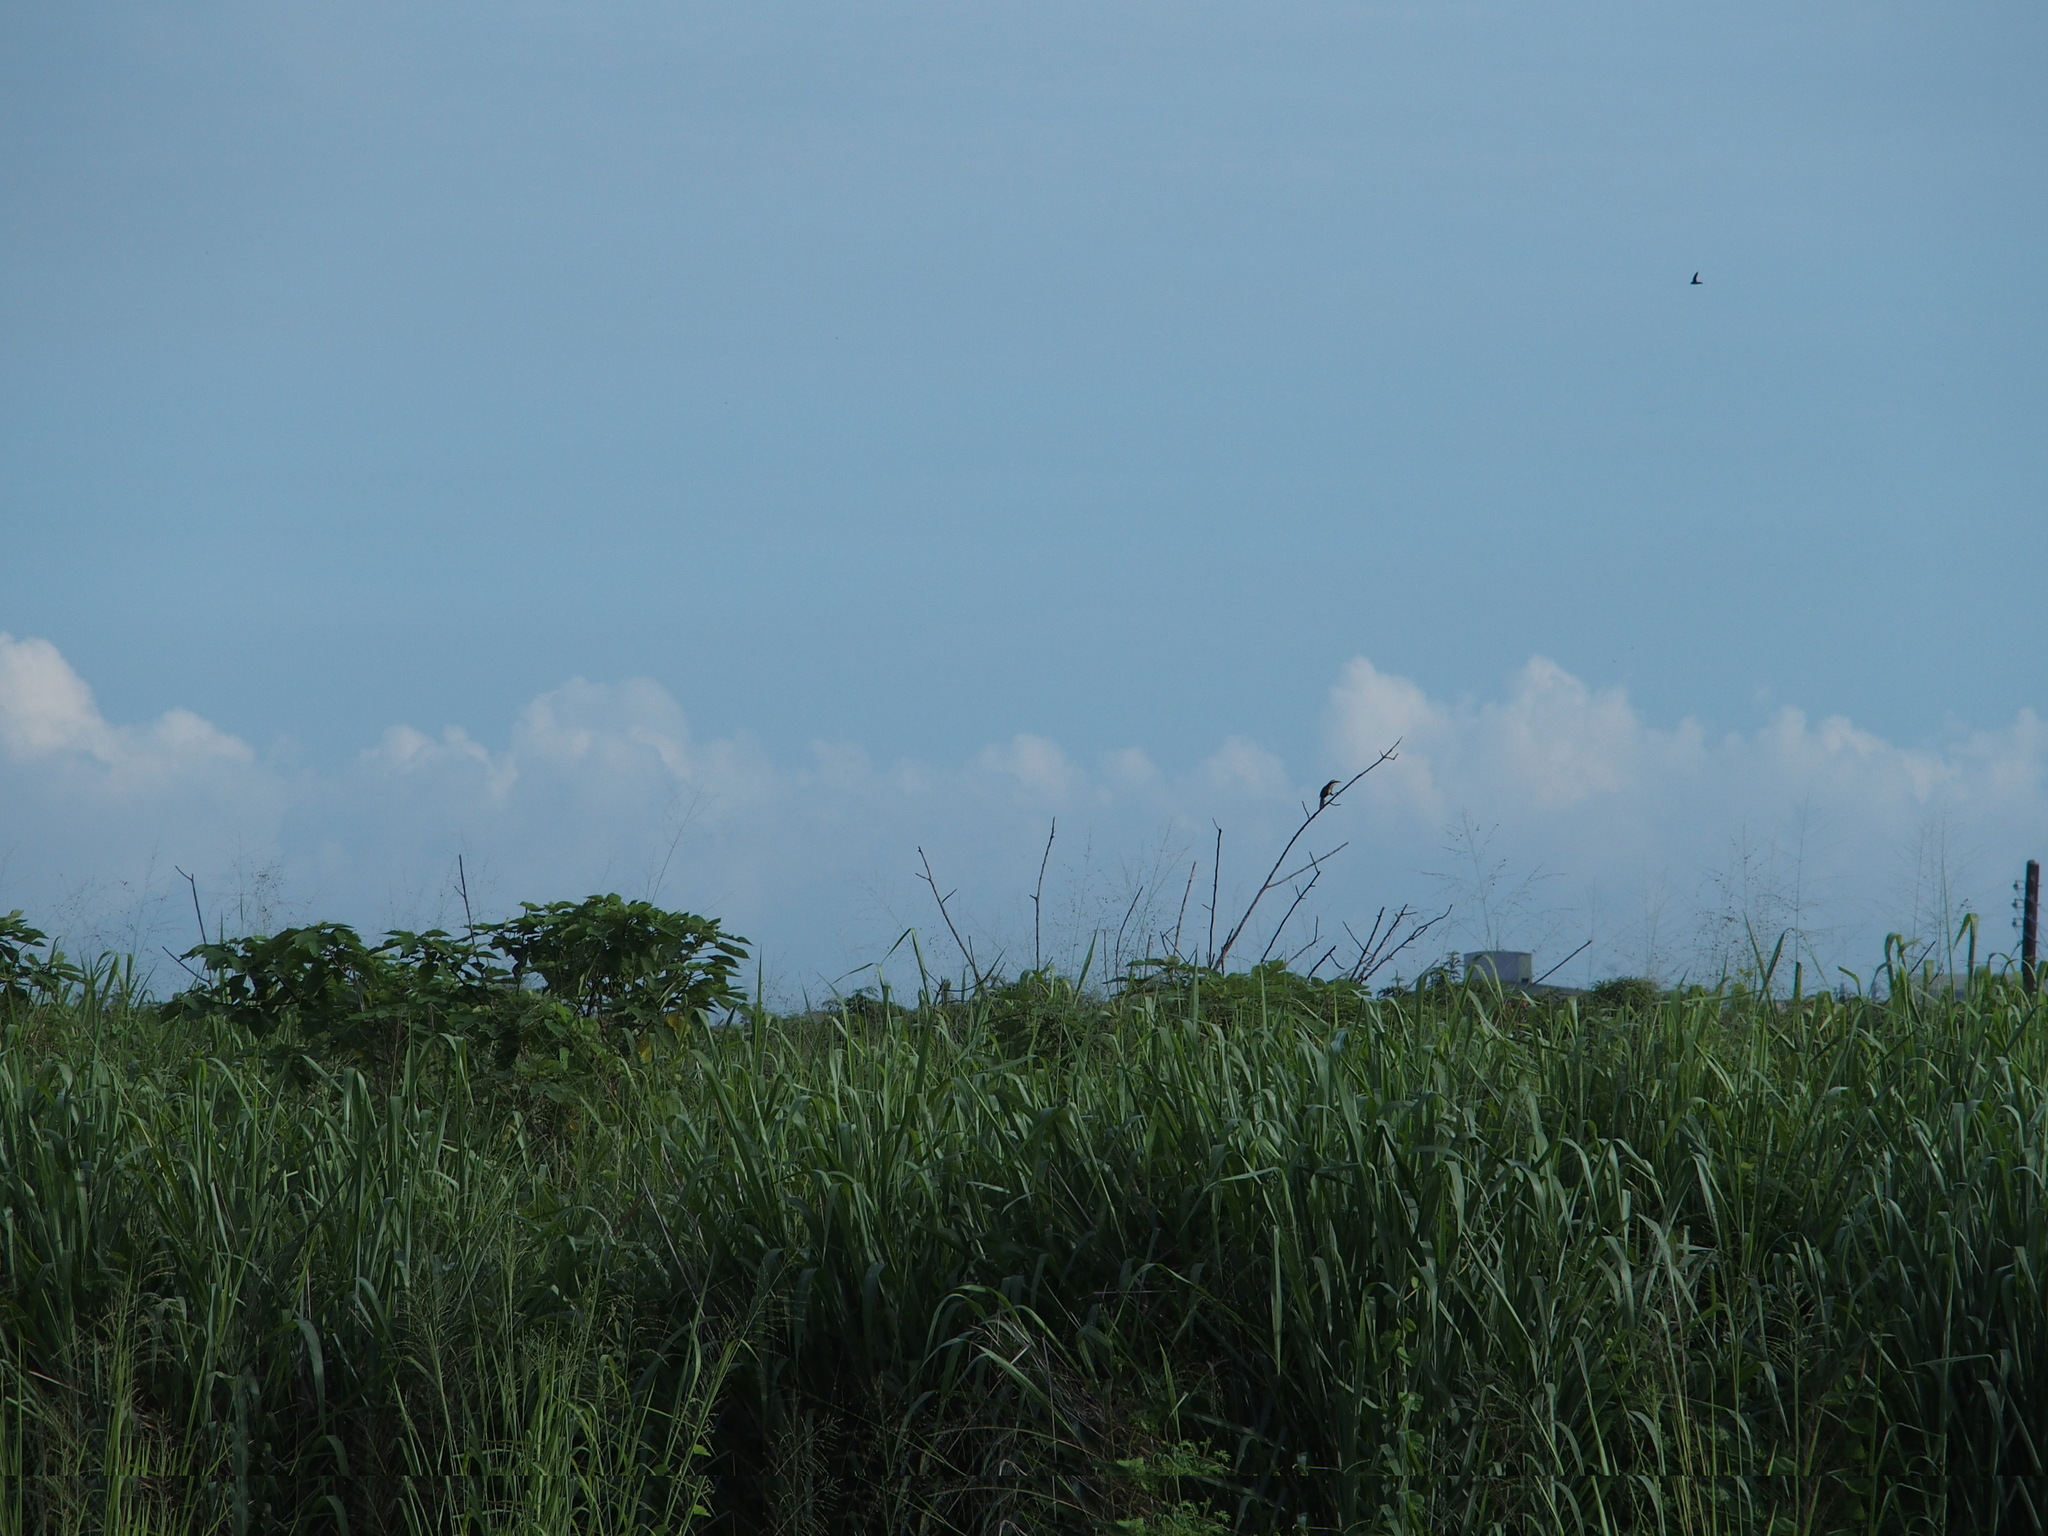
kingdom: Animalia
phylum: Chordata
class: Aves
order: Passeriformes
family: Timaliidae
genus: Pomatorhinus
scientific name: Pomatorhinus musicus
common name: Taiwan scimitar-babbler
